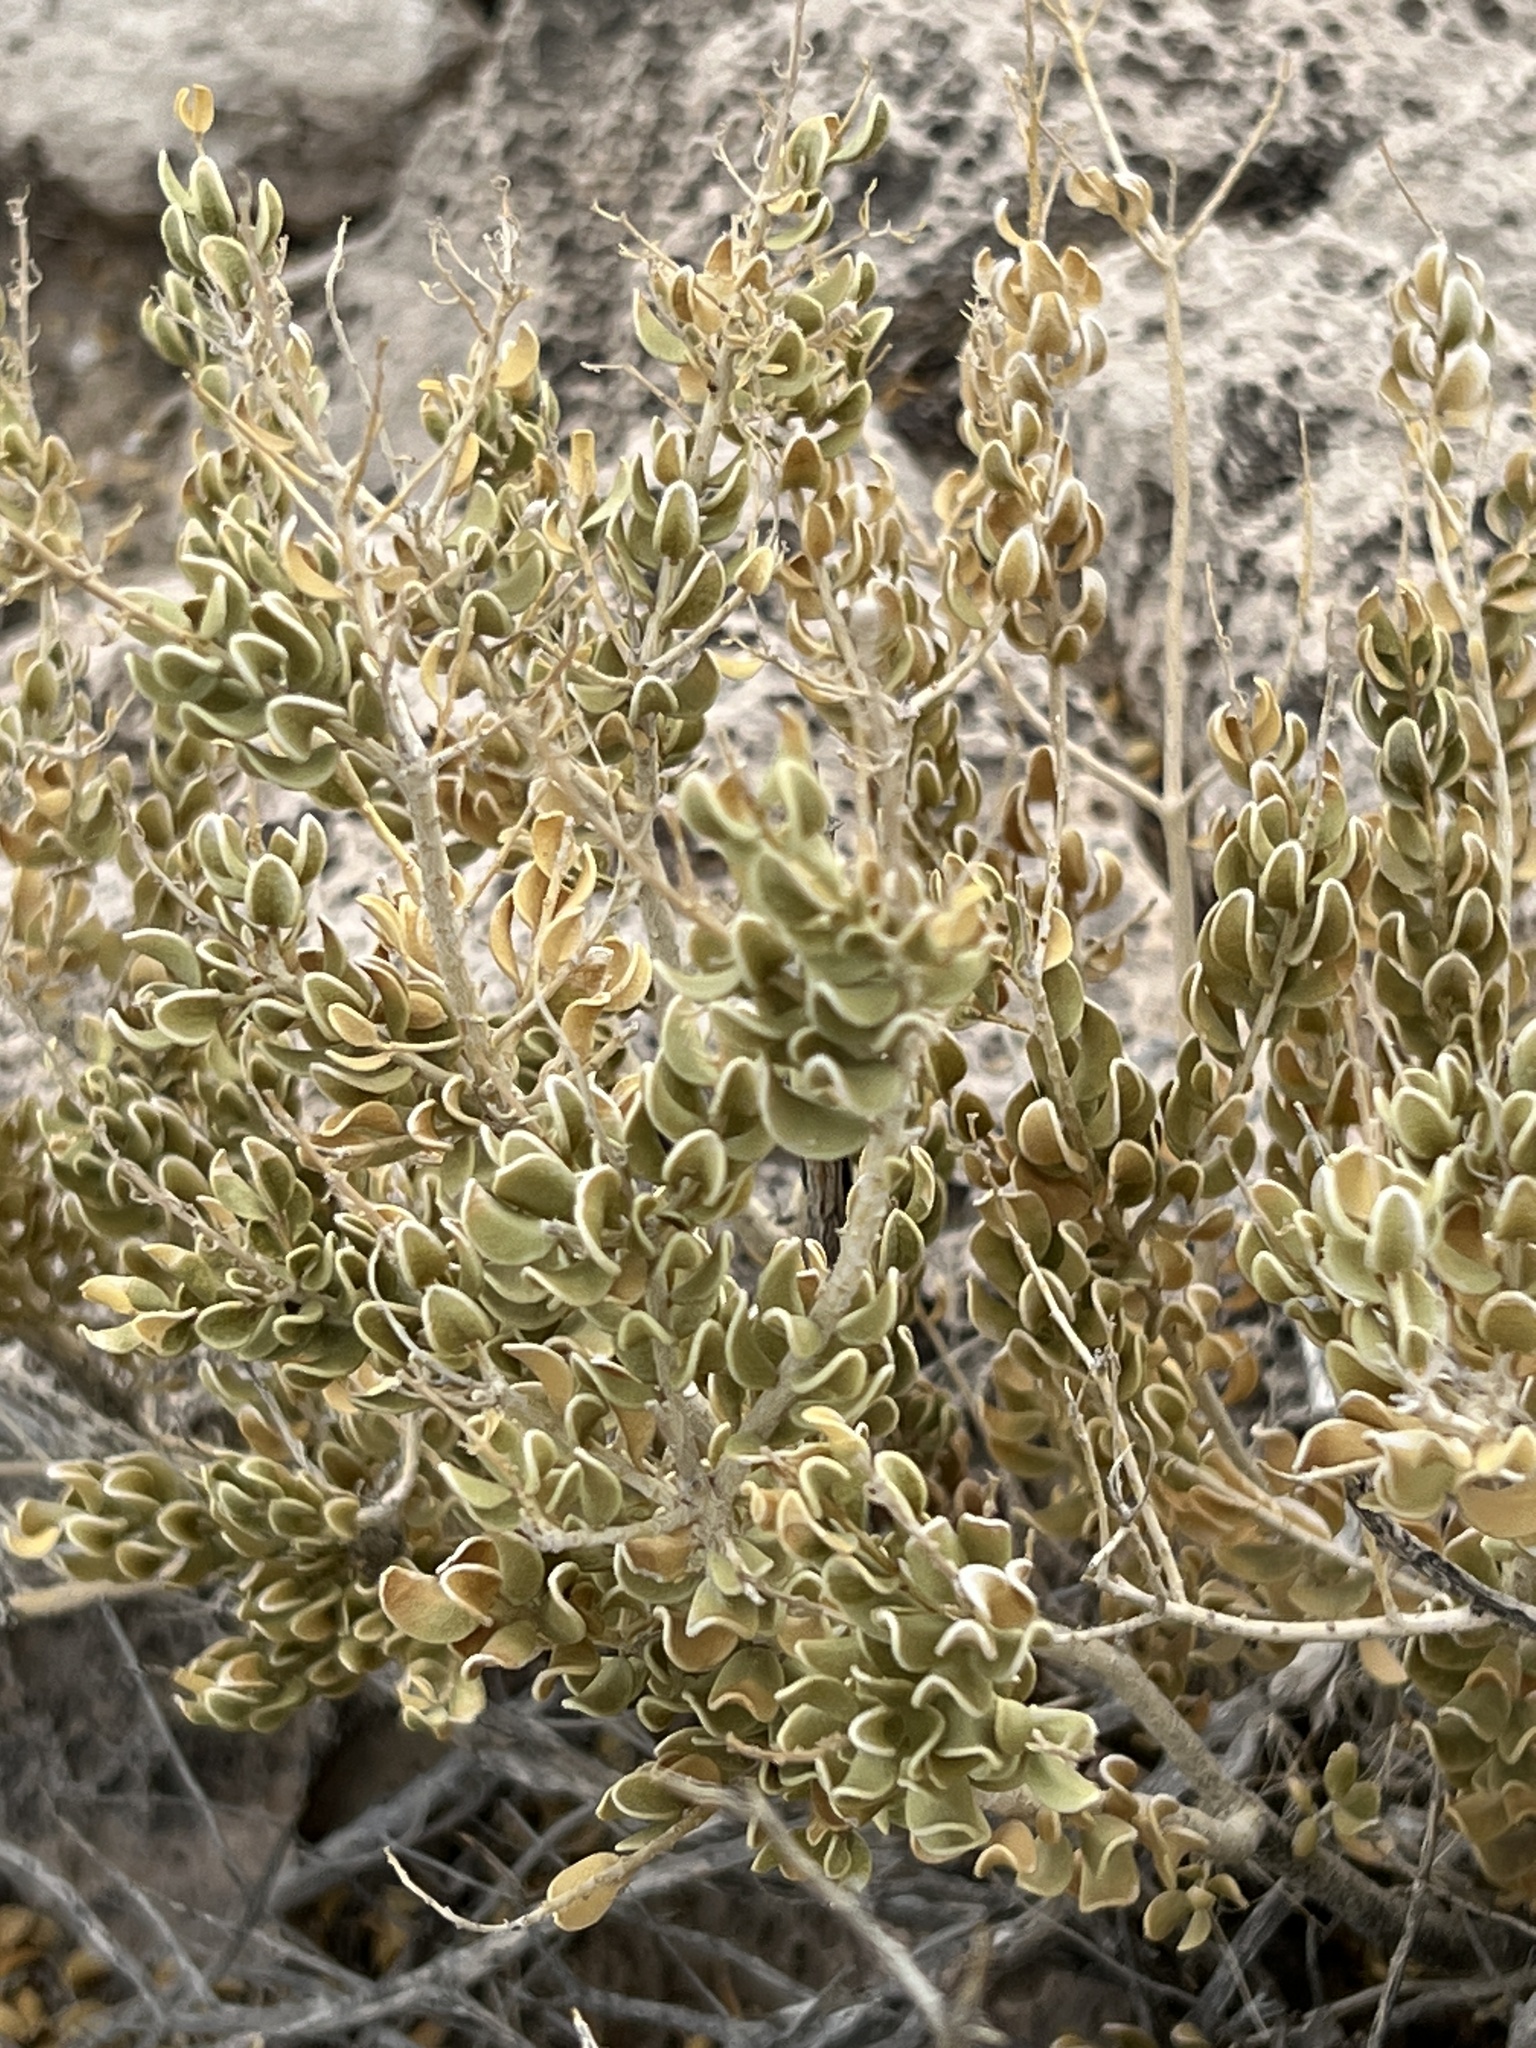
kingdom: Plantae
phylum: Tracheophyta
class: Magnoliopsida
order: Celastrales
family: Celastraceae
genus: Mortonia
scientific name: Mortonia utahensis
